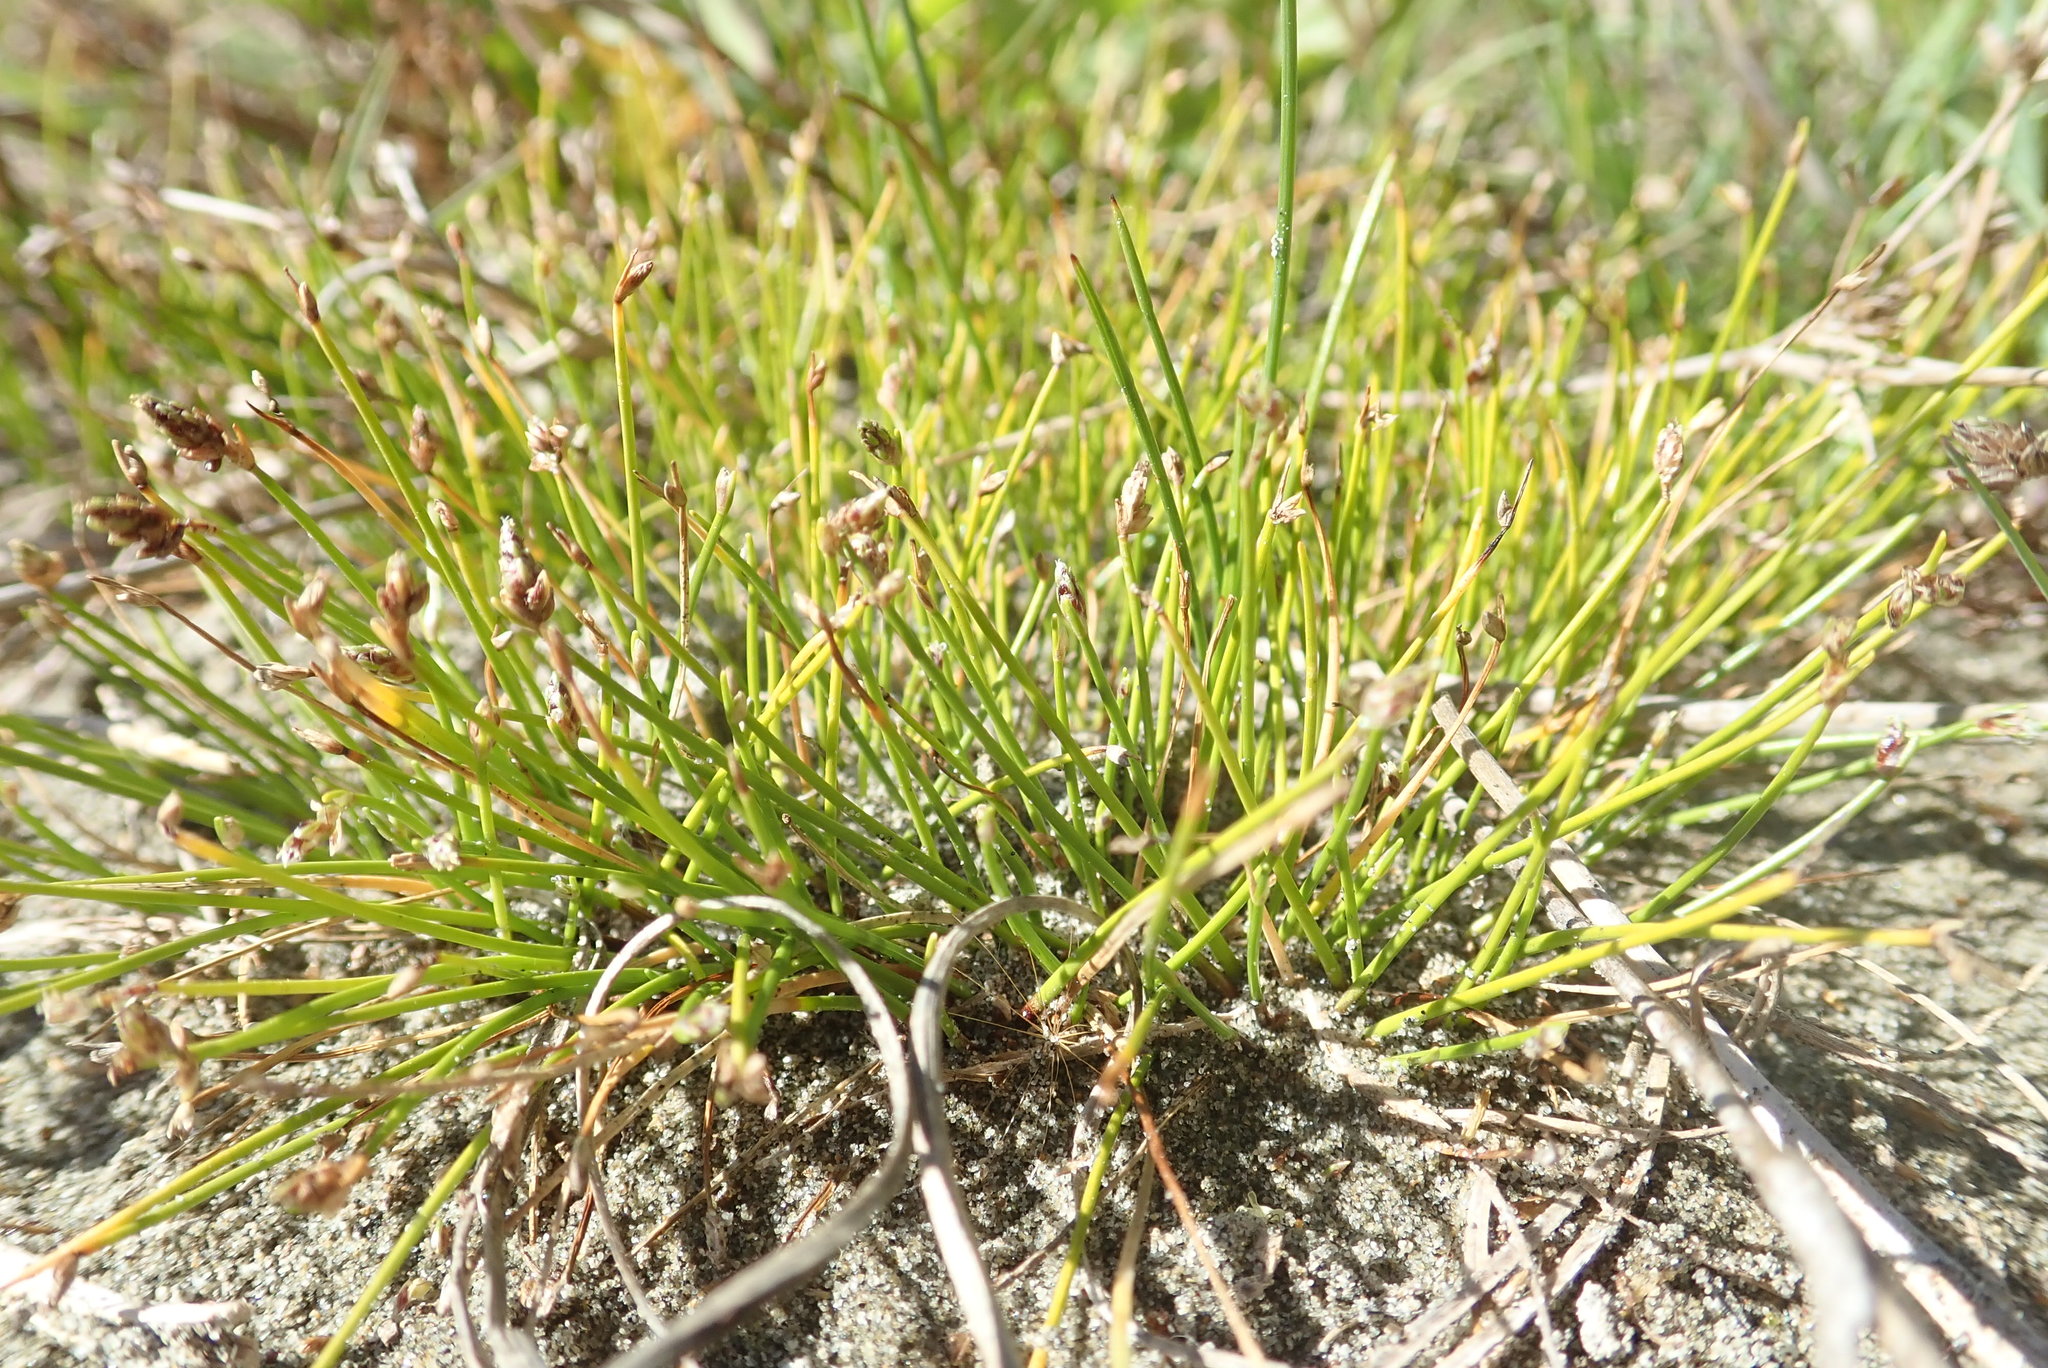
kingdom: Plantae
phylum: Tracheophyta
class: Liliopsida
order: Poales
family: Cyperaceae
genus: Isolepis
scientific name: Isolepis cernua
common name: Slender club-rush
